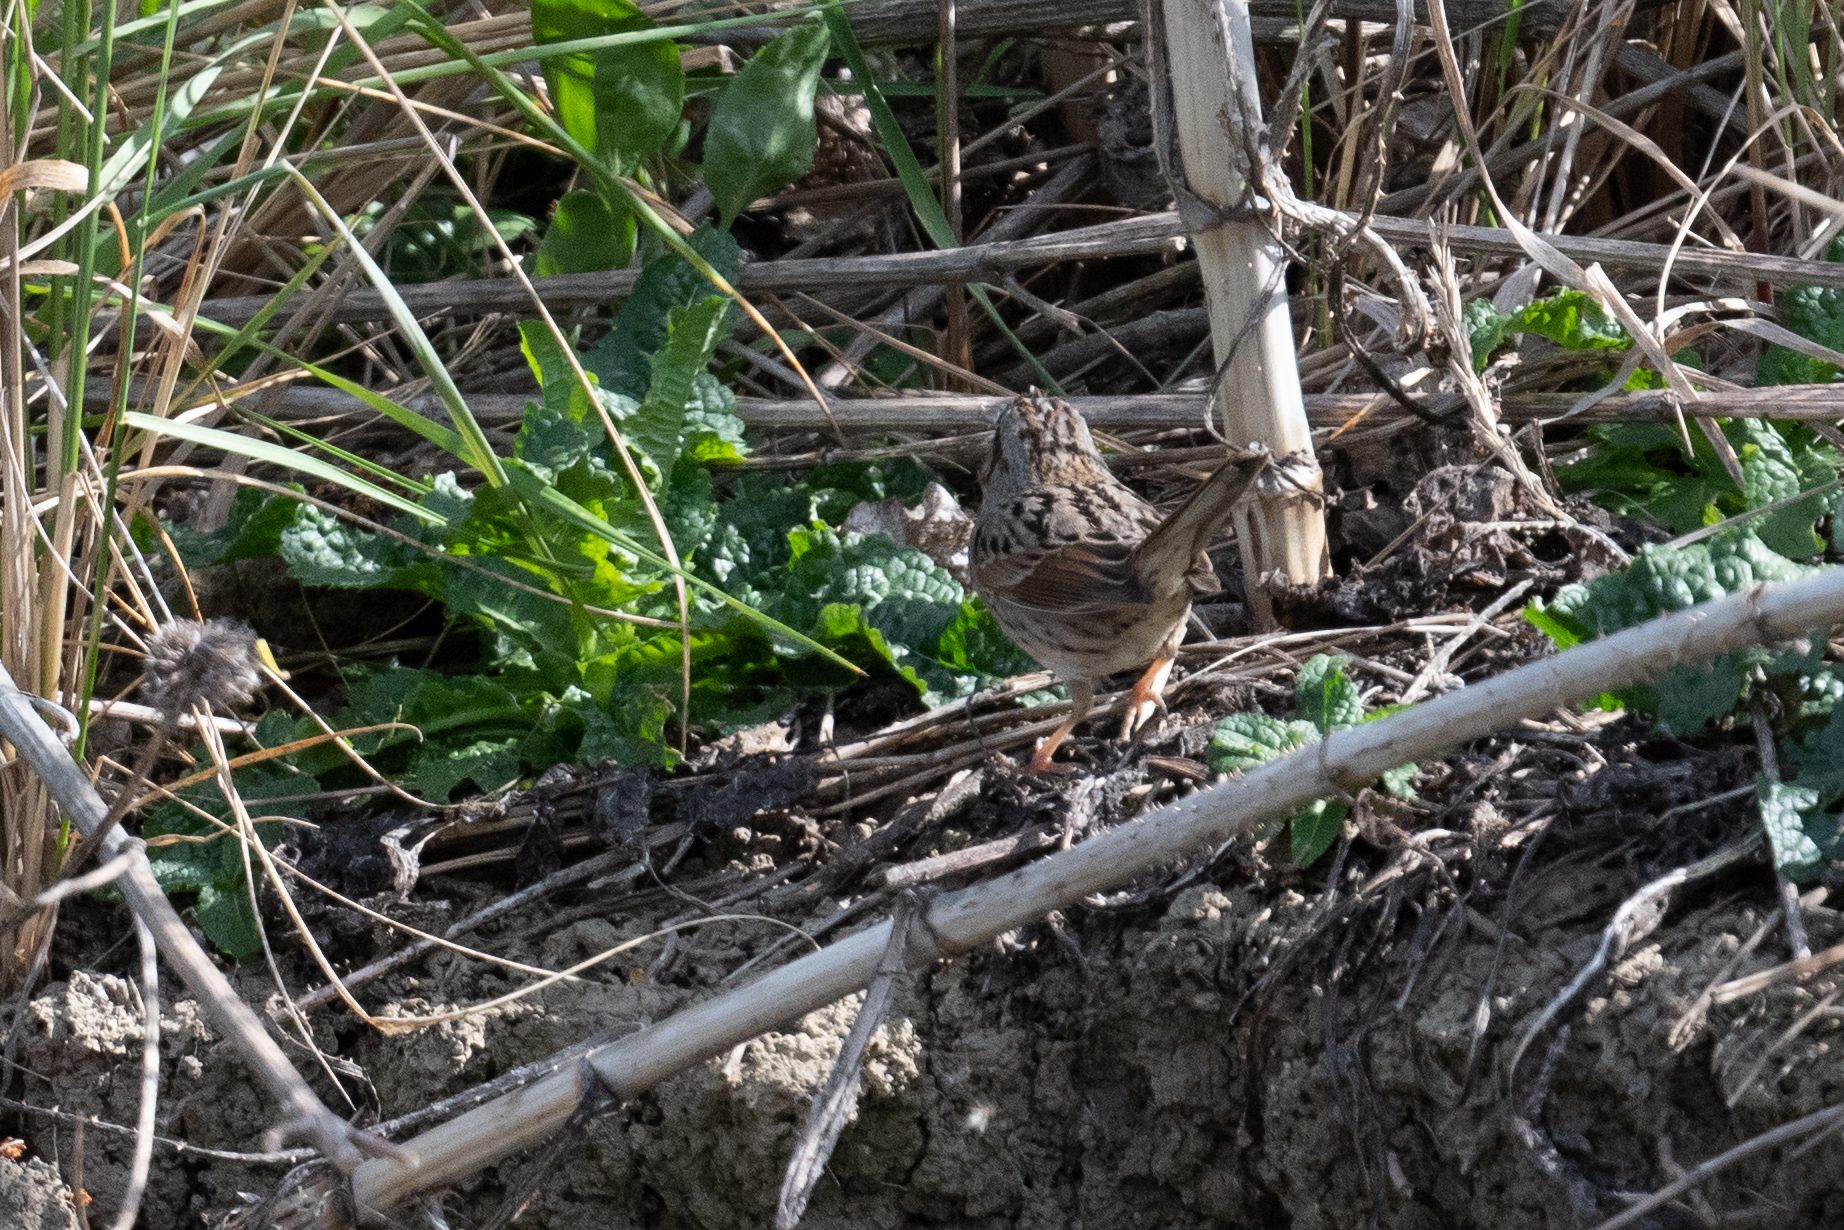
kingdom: Animalia
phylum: Chordata
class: Aves
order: Passeriformes
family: Passerellidae
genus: Melospiza
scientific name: Melospiza lincolnii
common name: Lincoln's sparrow
